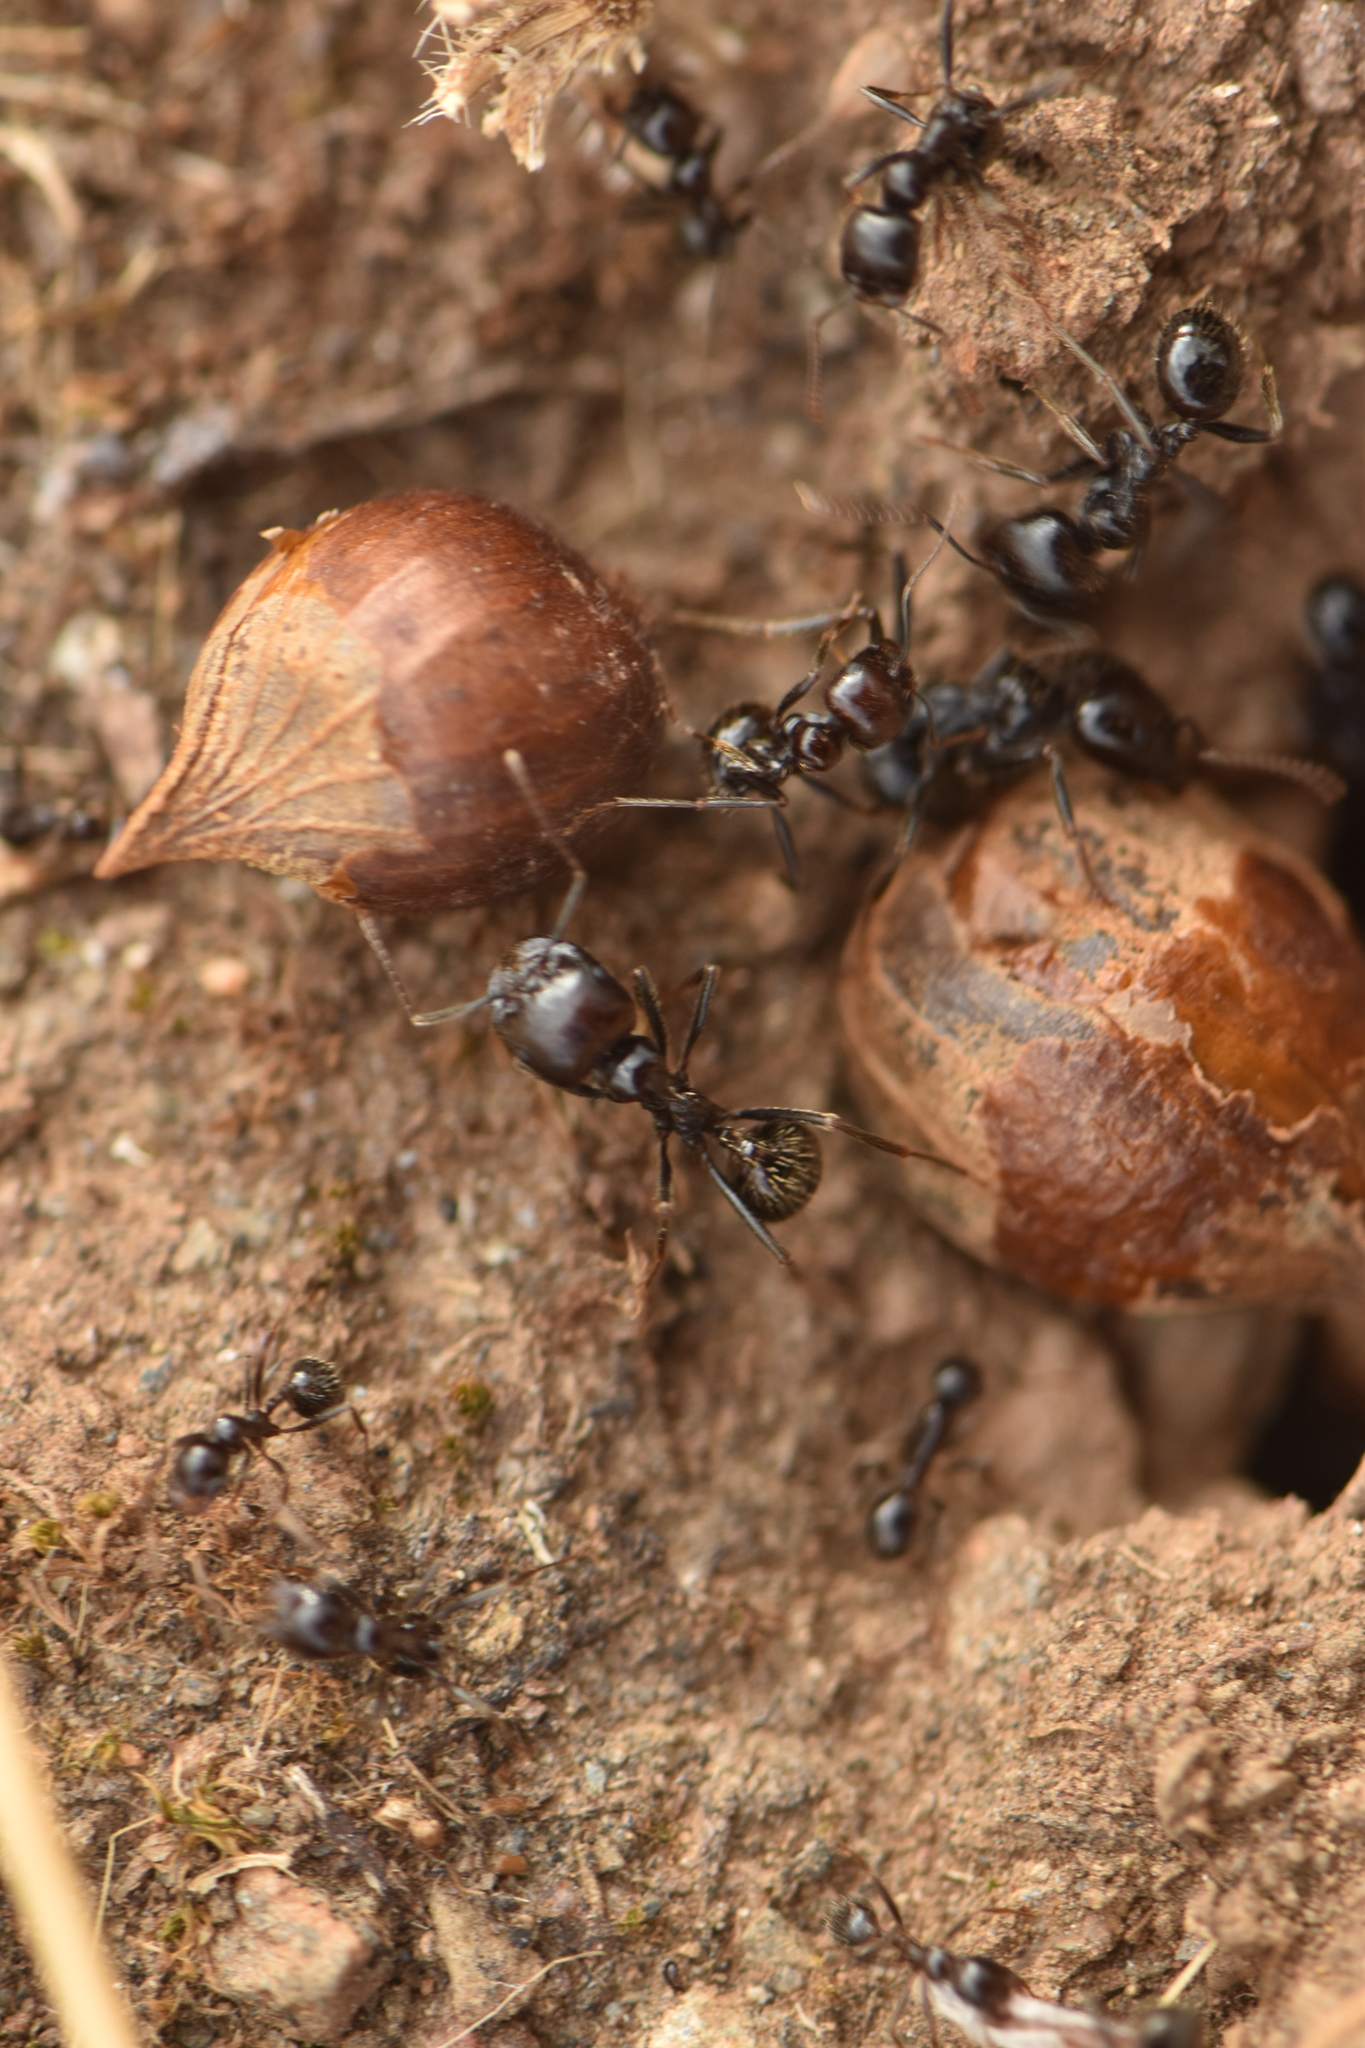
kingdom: Animalia
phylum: Arthropoda
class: Insecta
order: Hymenoptera
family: Formicidae
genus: Messor
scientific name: Messor barbarus
